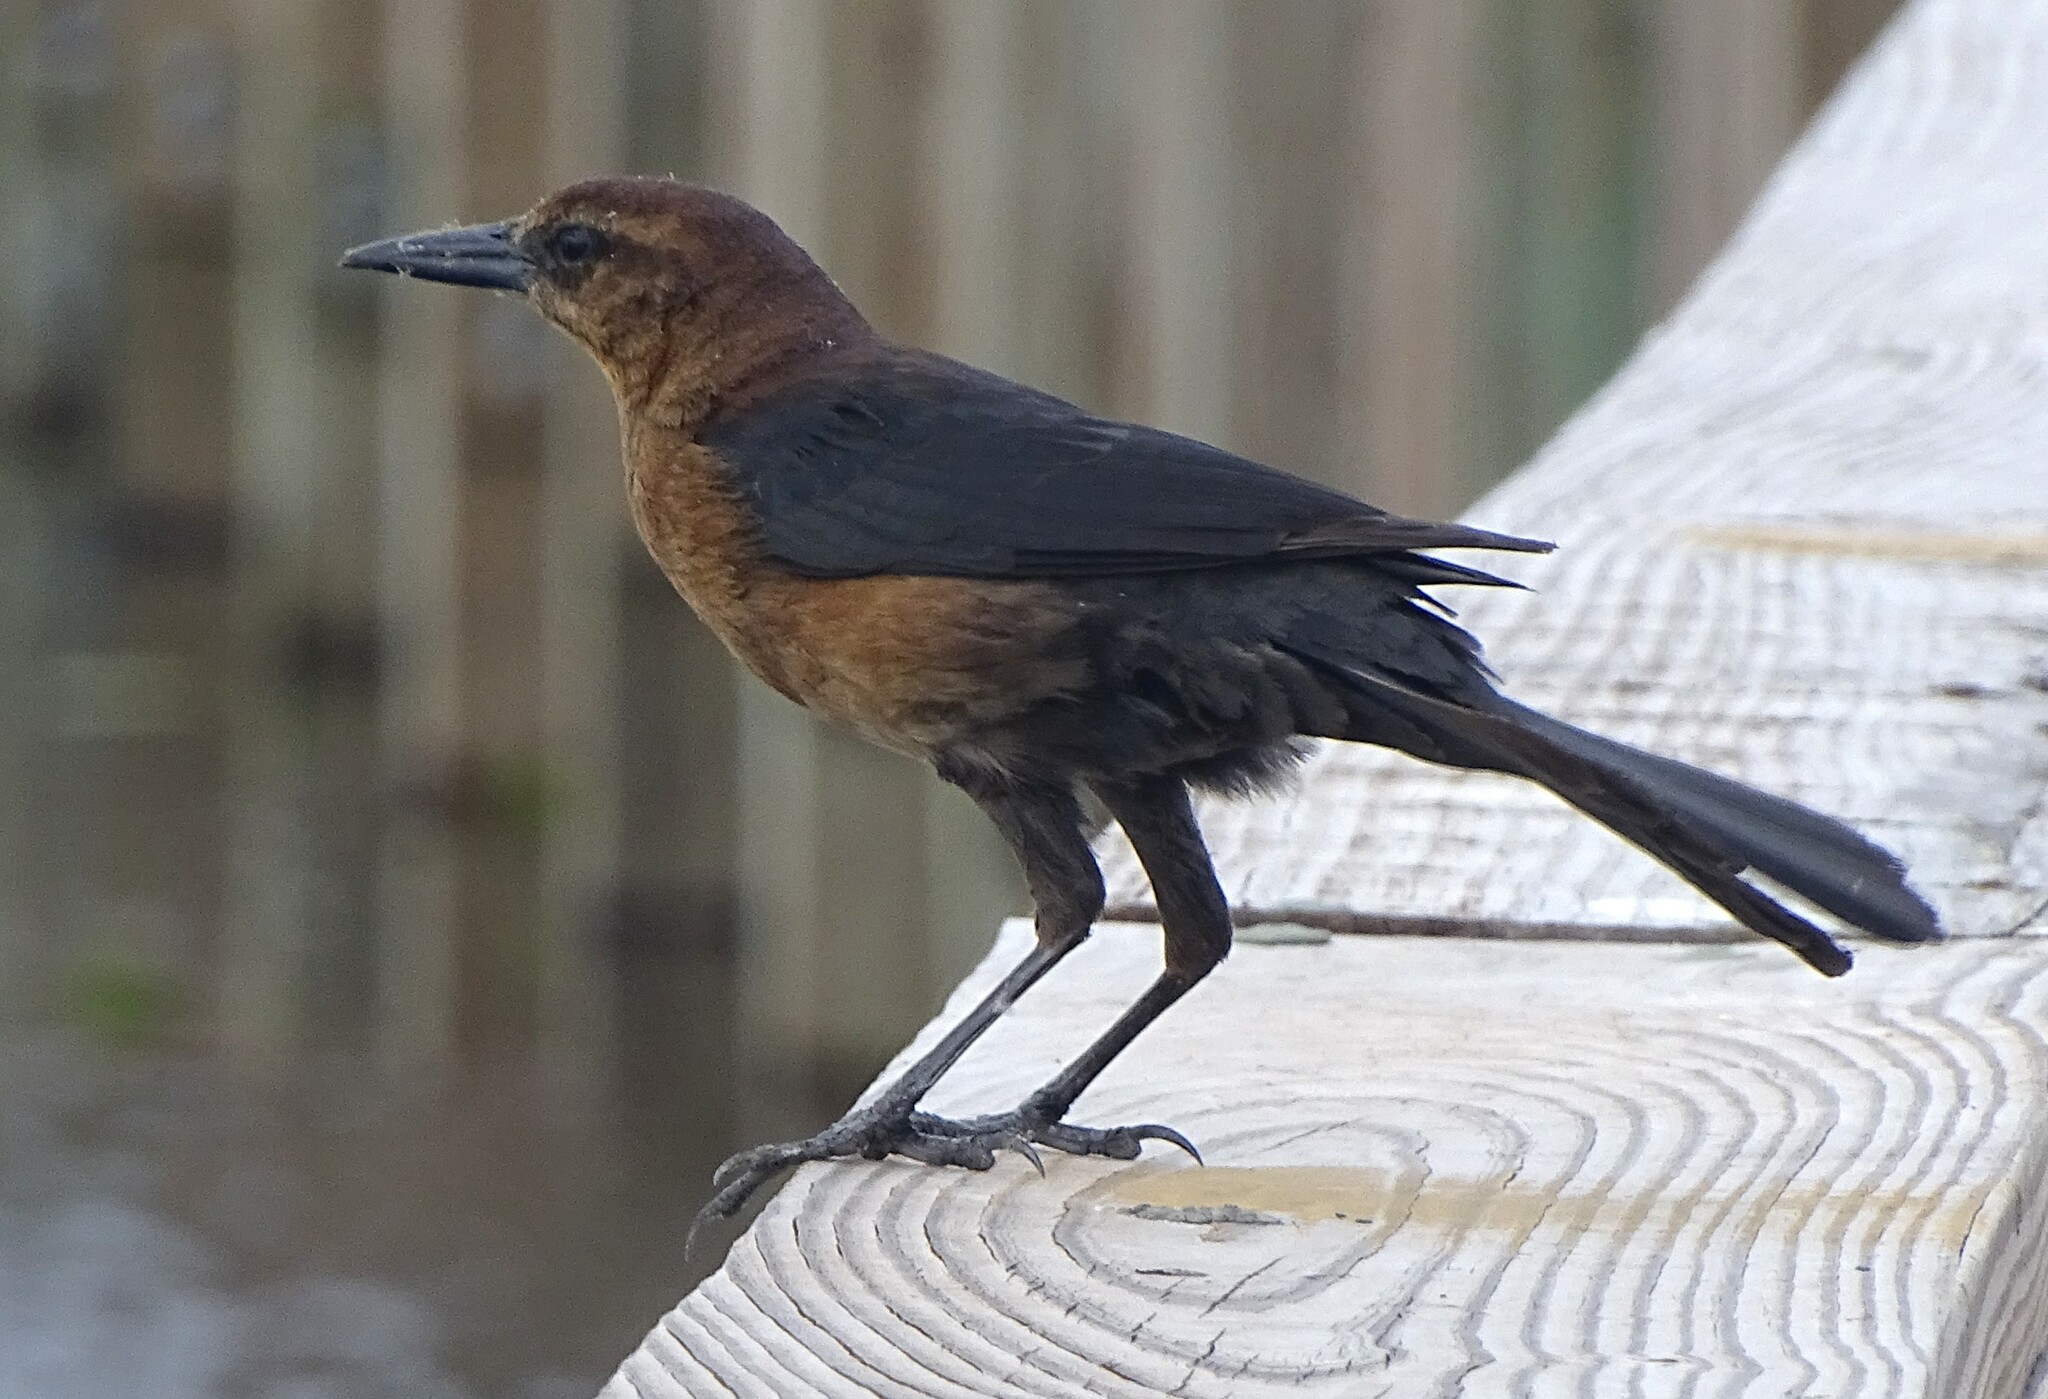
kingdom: Animalia
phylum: Chordata
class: Aves
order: Passeriformes
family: Icteridae
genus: Quiscalus
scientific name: Quiscalus major
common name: Boat-tailed grackle
